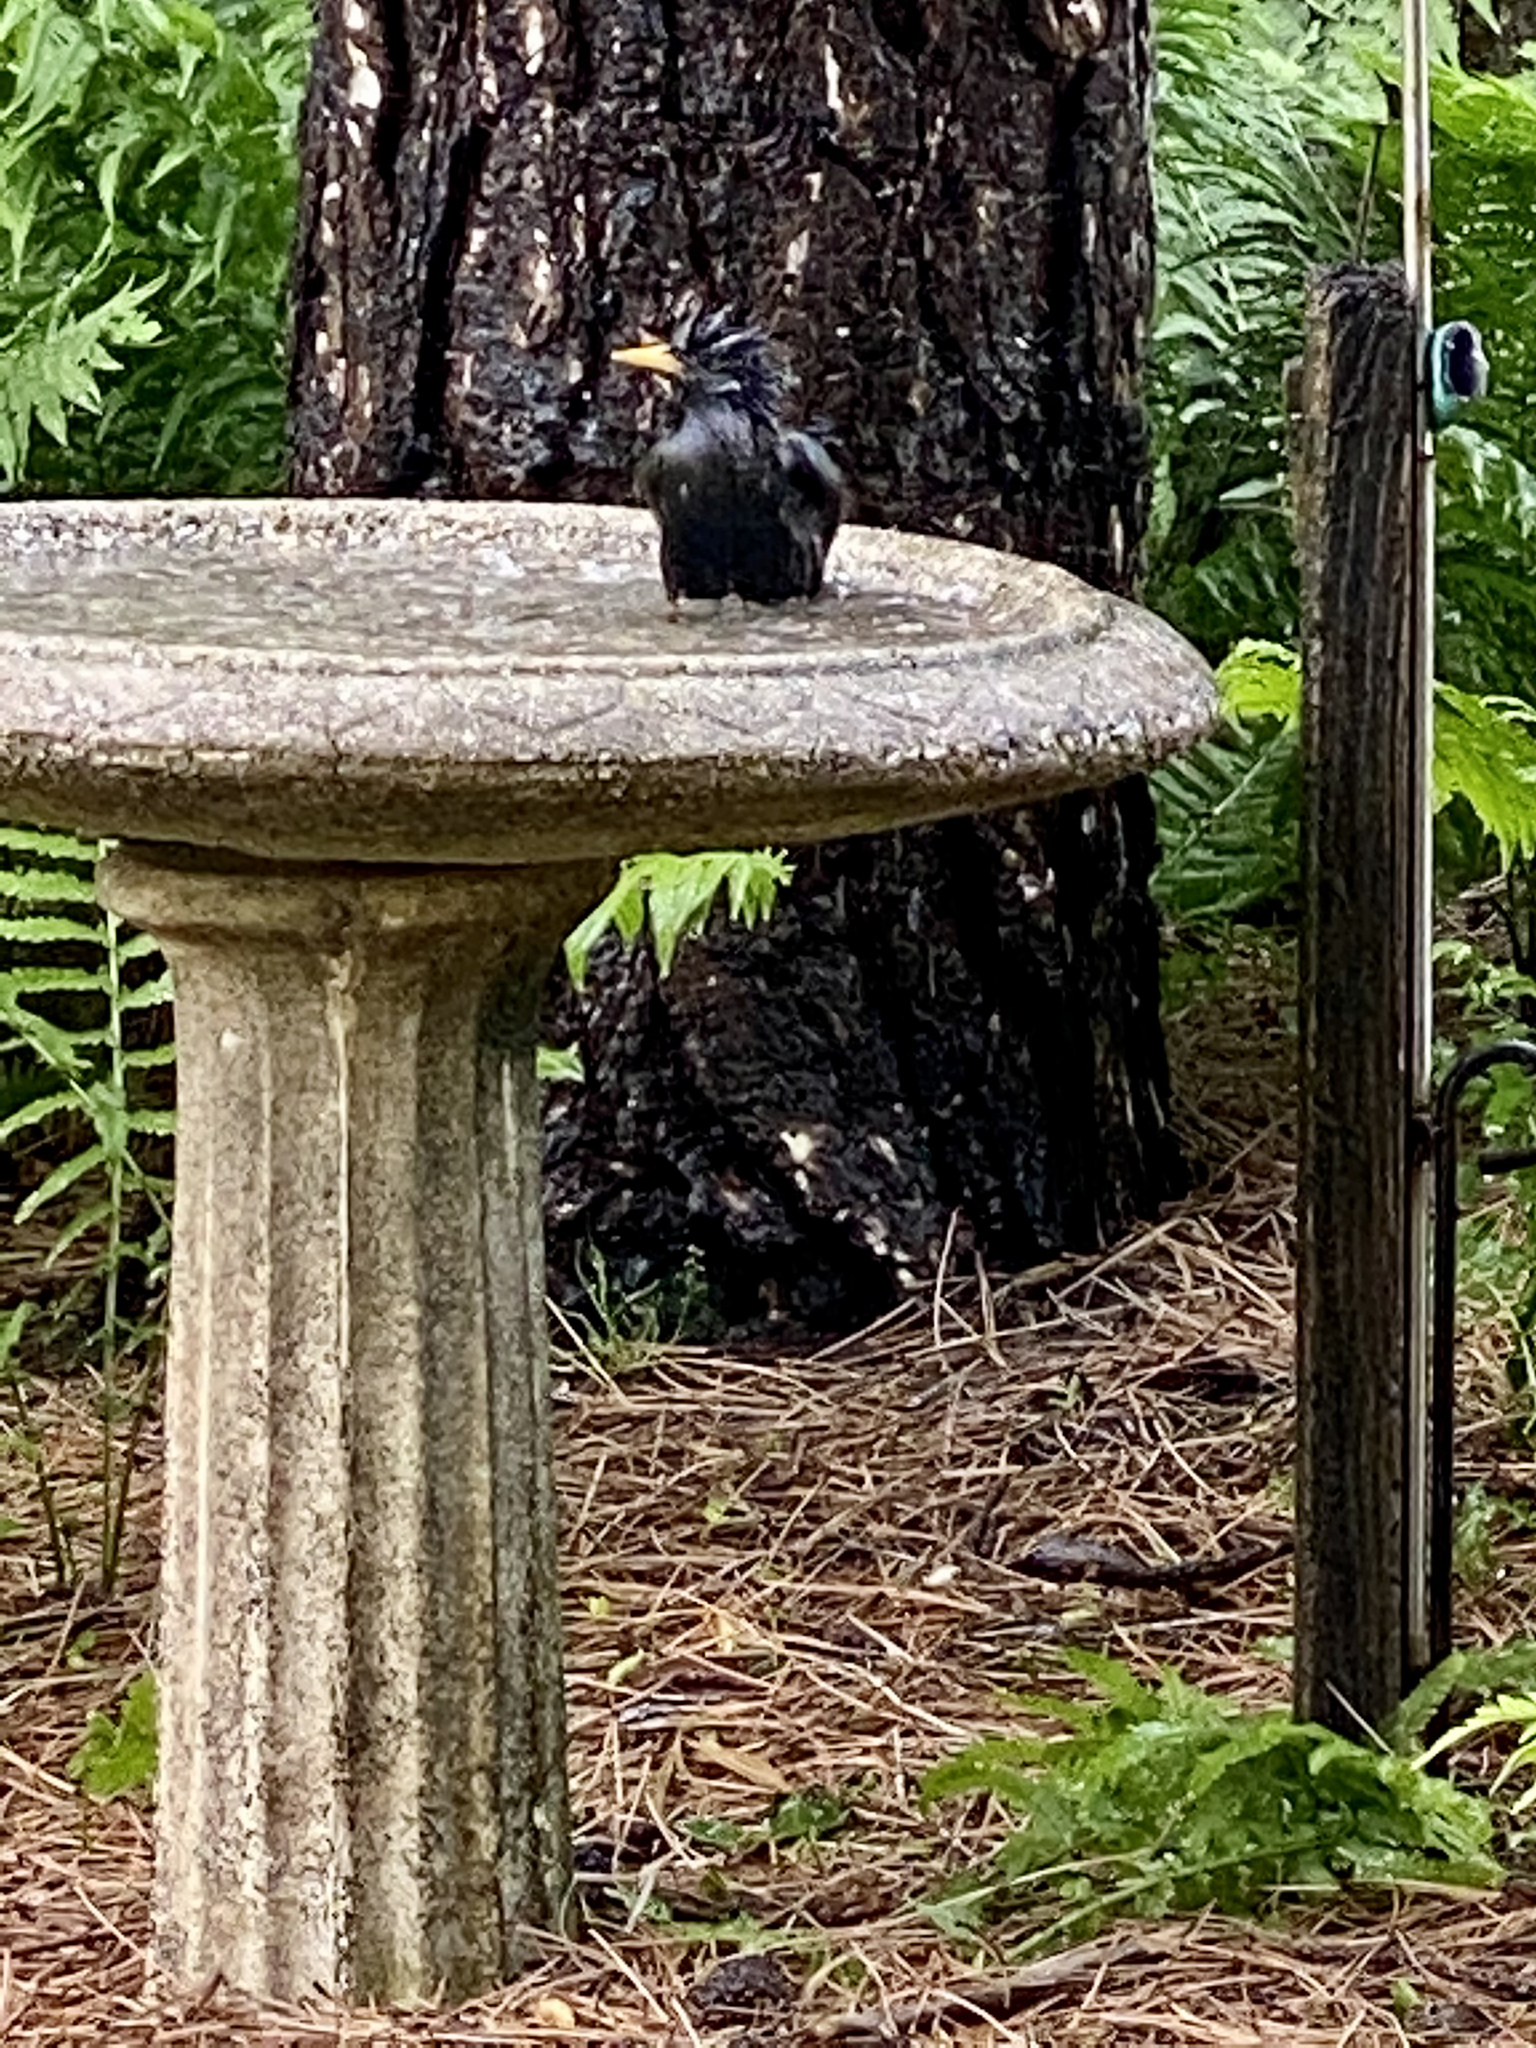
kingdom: Animalia
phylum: Chordata
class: Aves
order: Passeriformes
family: Sturnidae
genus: Sturnus
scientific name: Sturnus vulgaris
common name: Common starling
